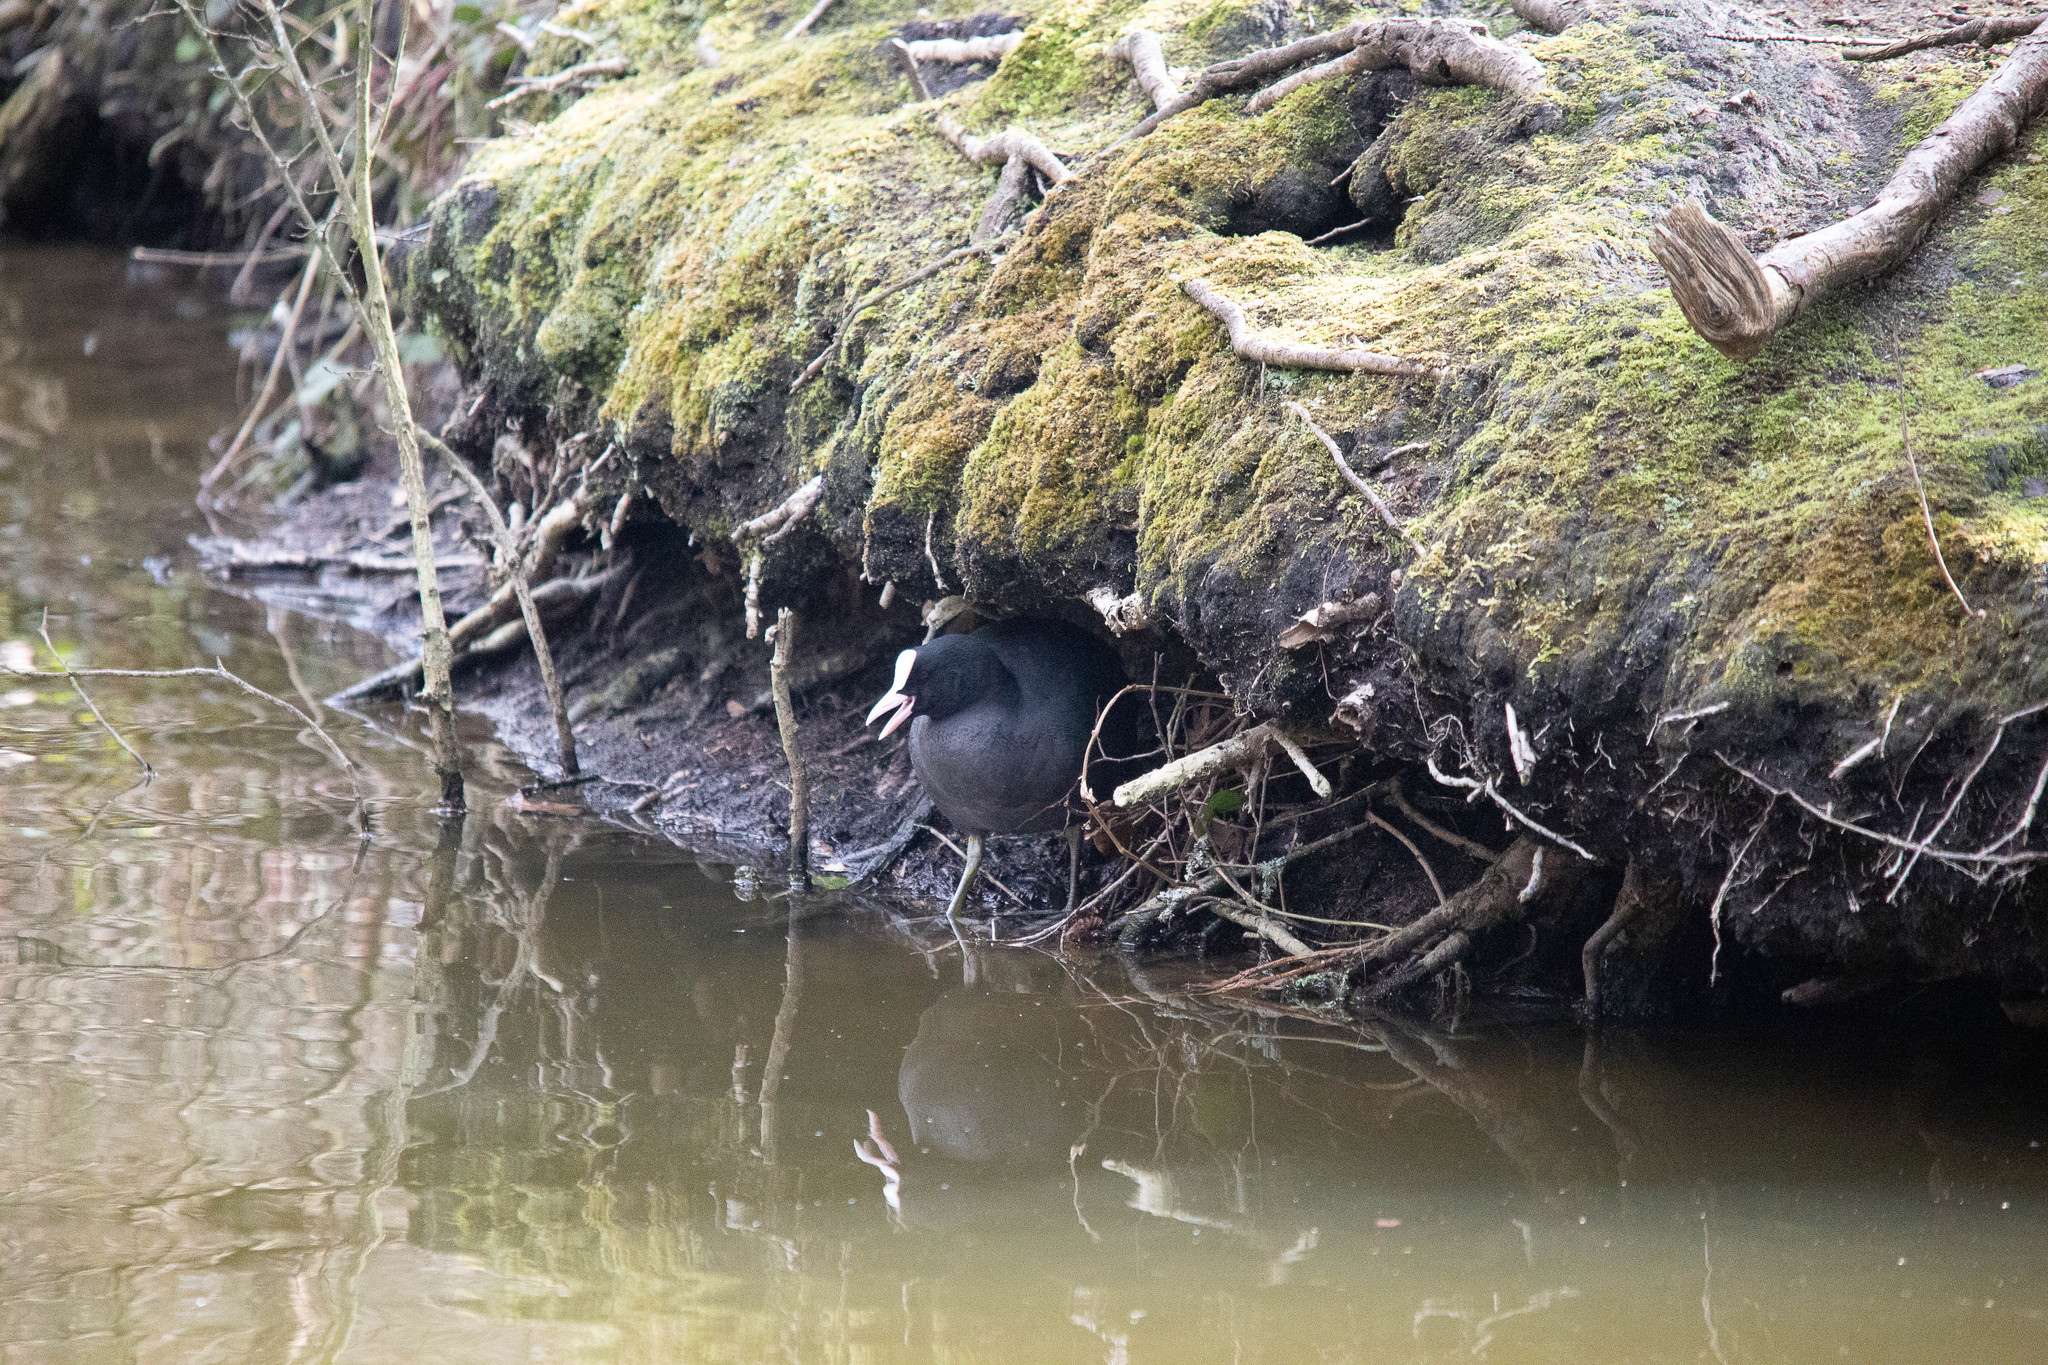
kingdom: Animalia
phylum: Chordata
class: Aves
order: Gruiformes
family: Rallidae
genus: Fulica
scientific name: Fulica atra
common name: Eurasian coot
